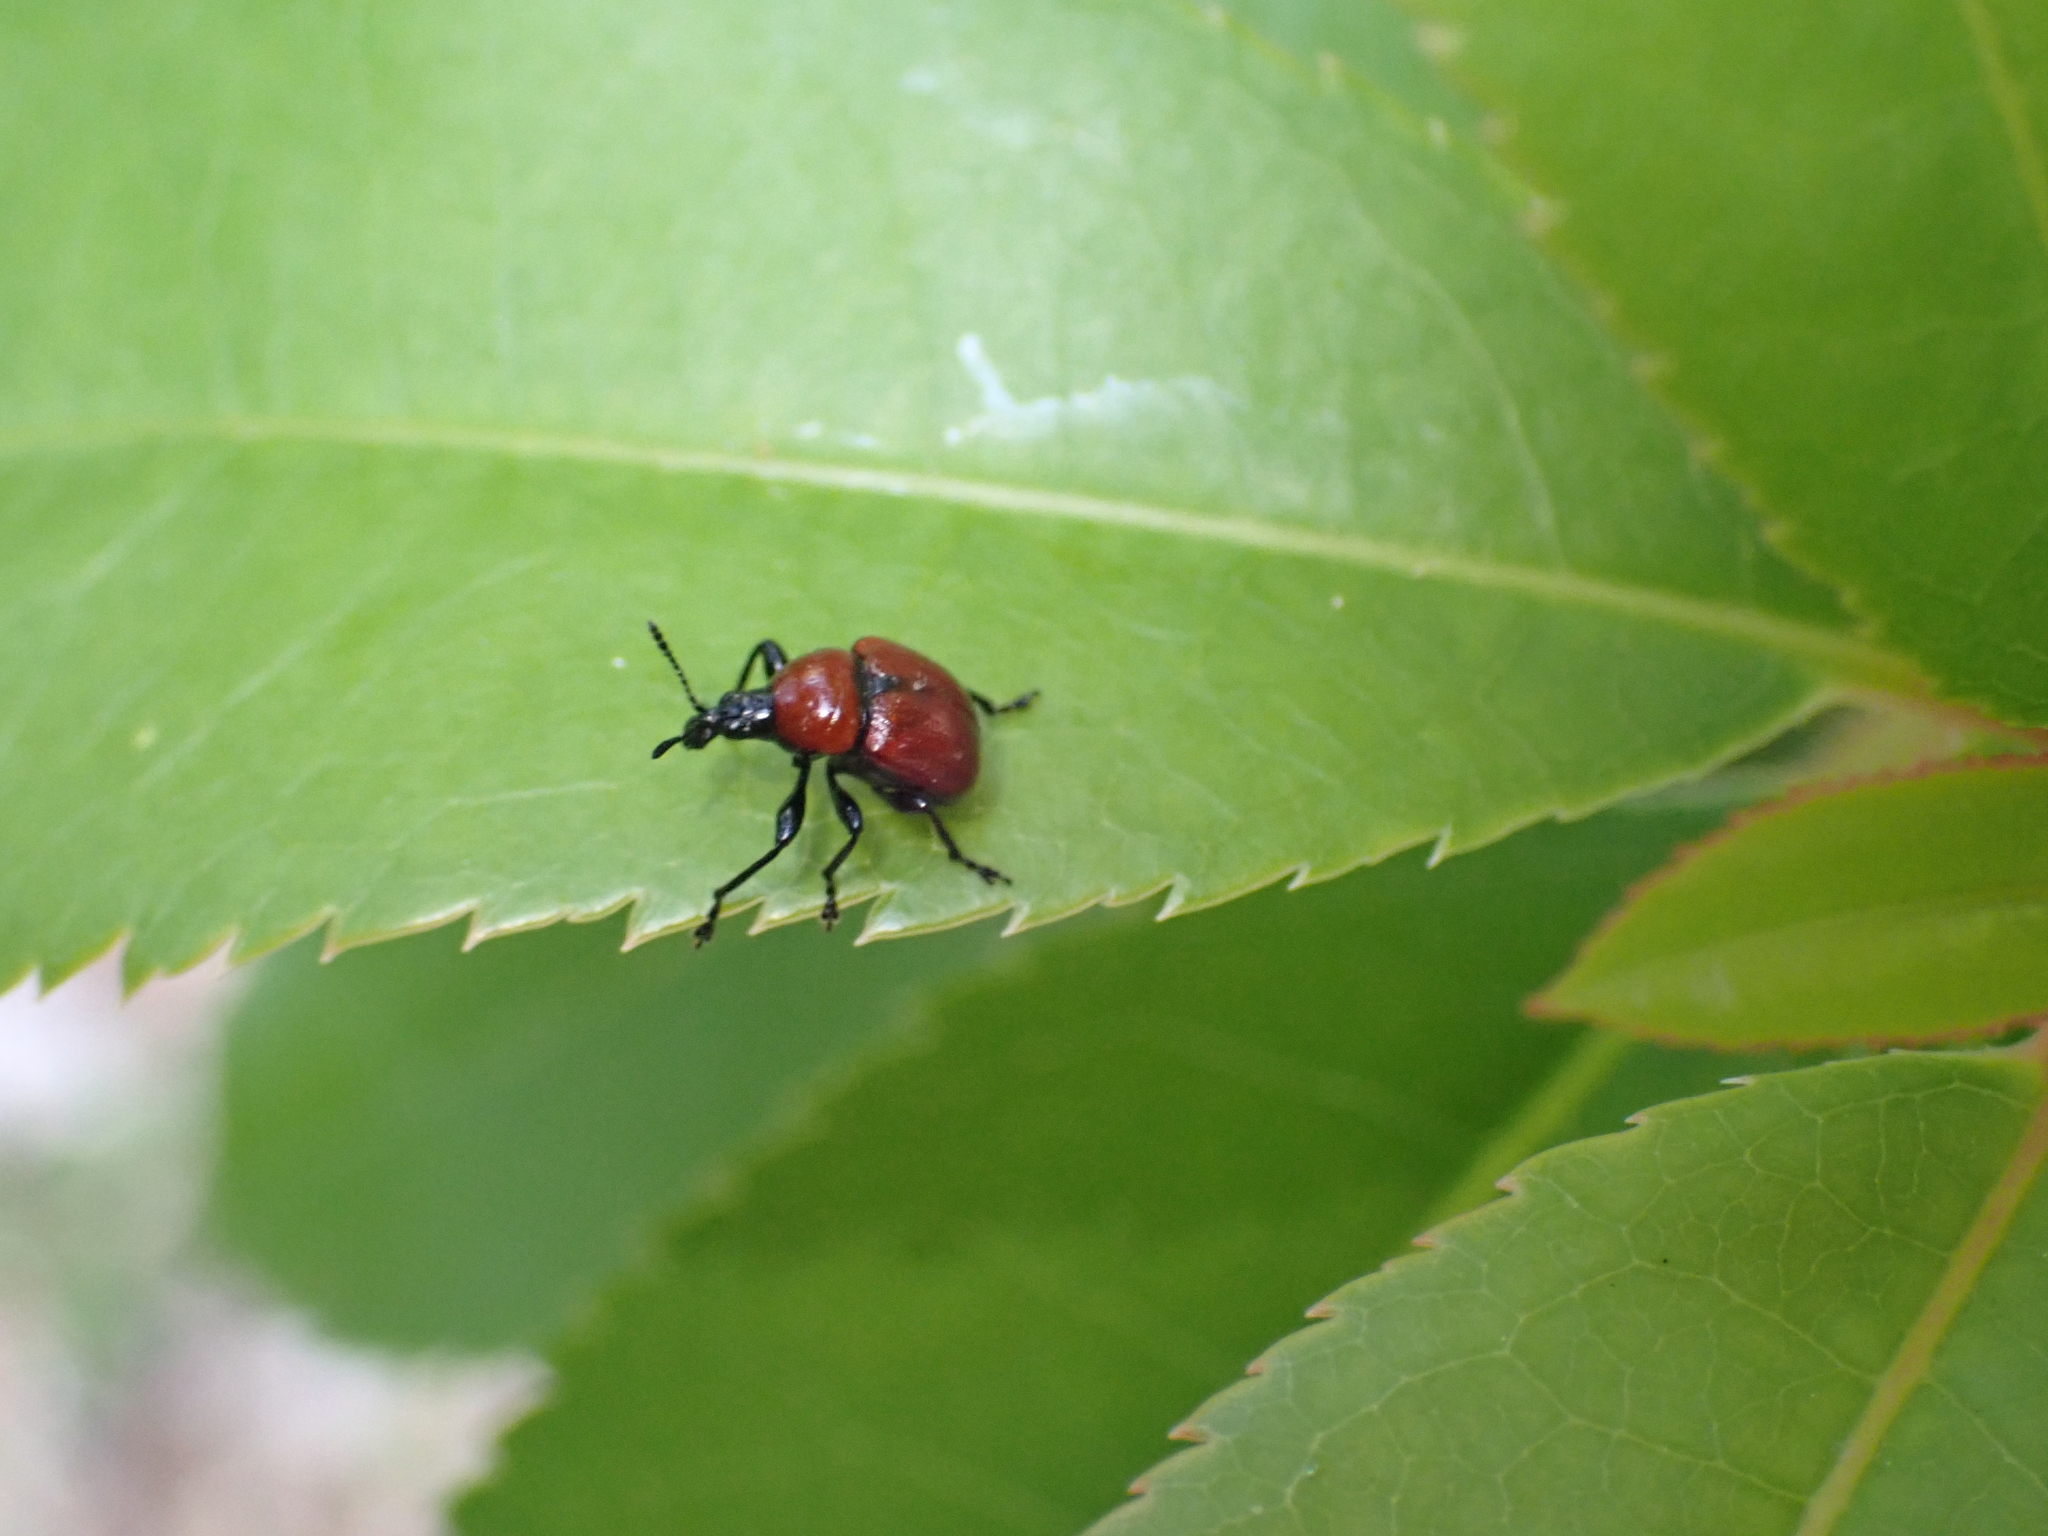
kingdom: Animalia
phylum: Arthropoda
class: Insecta
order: Coleoptera
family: Attelabidae
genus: Attelabus
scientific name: Attelabus nitens
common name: Oak leaf-roller
